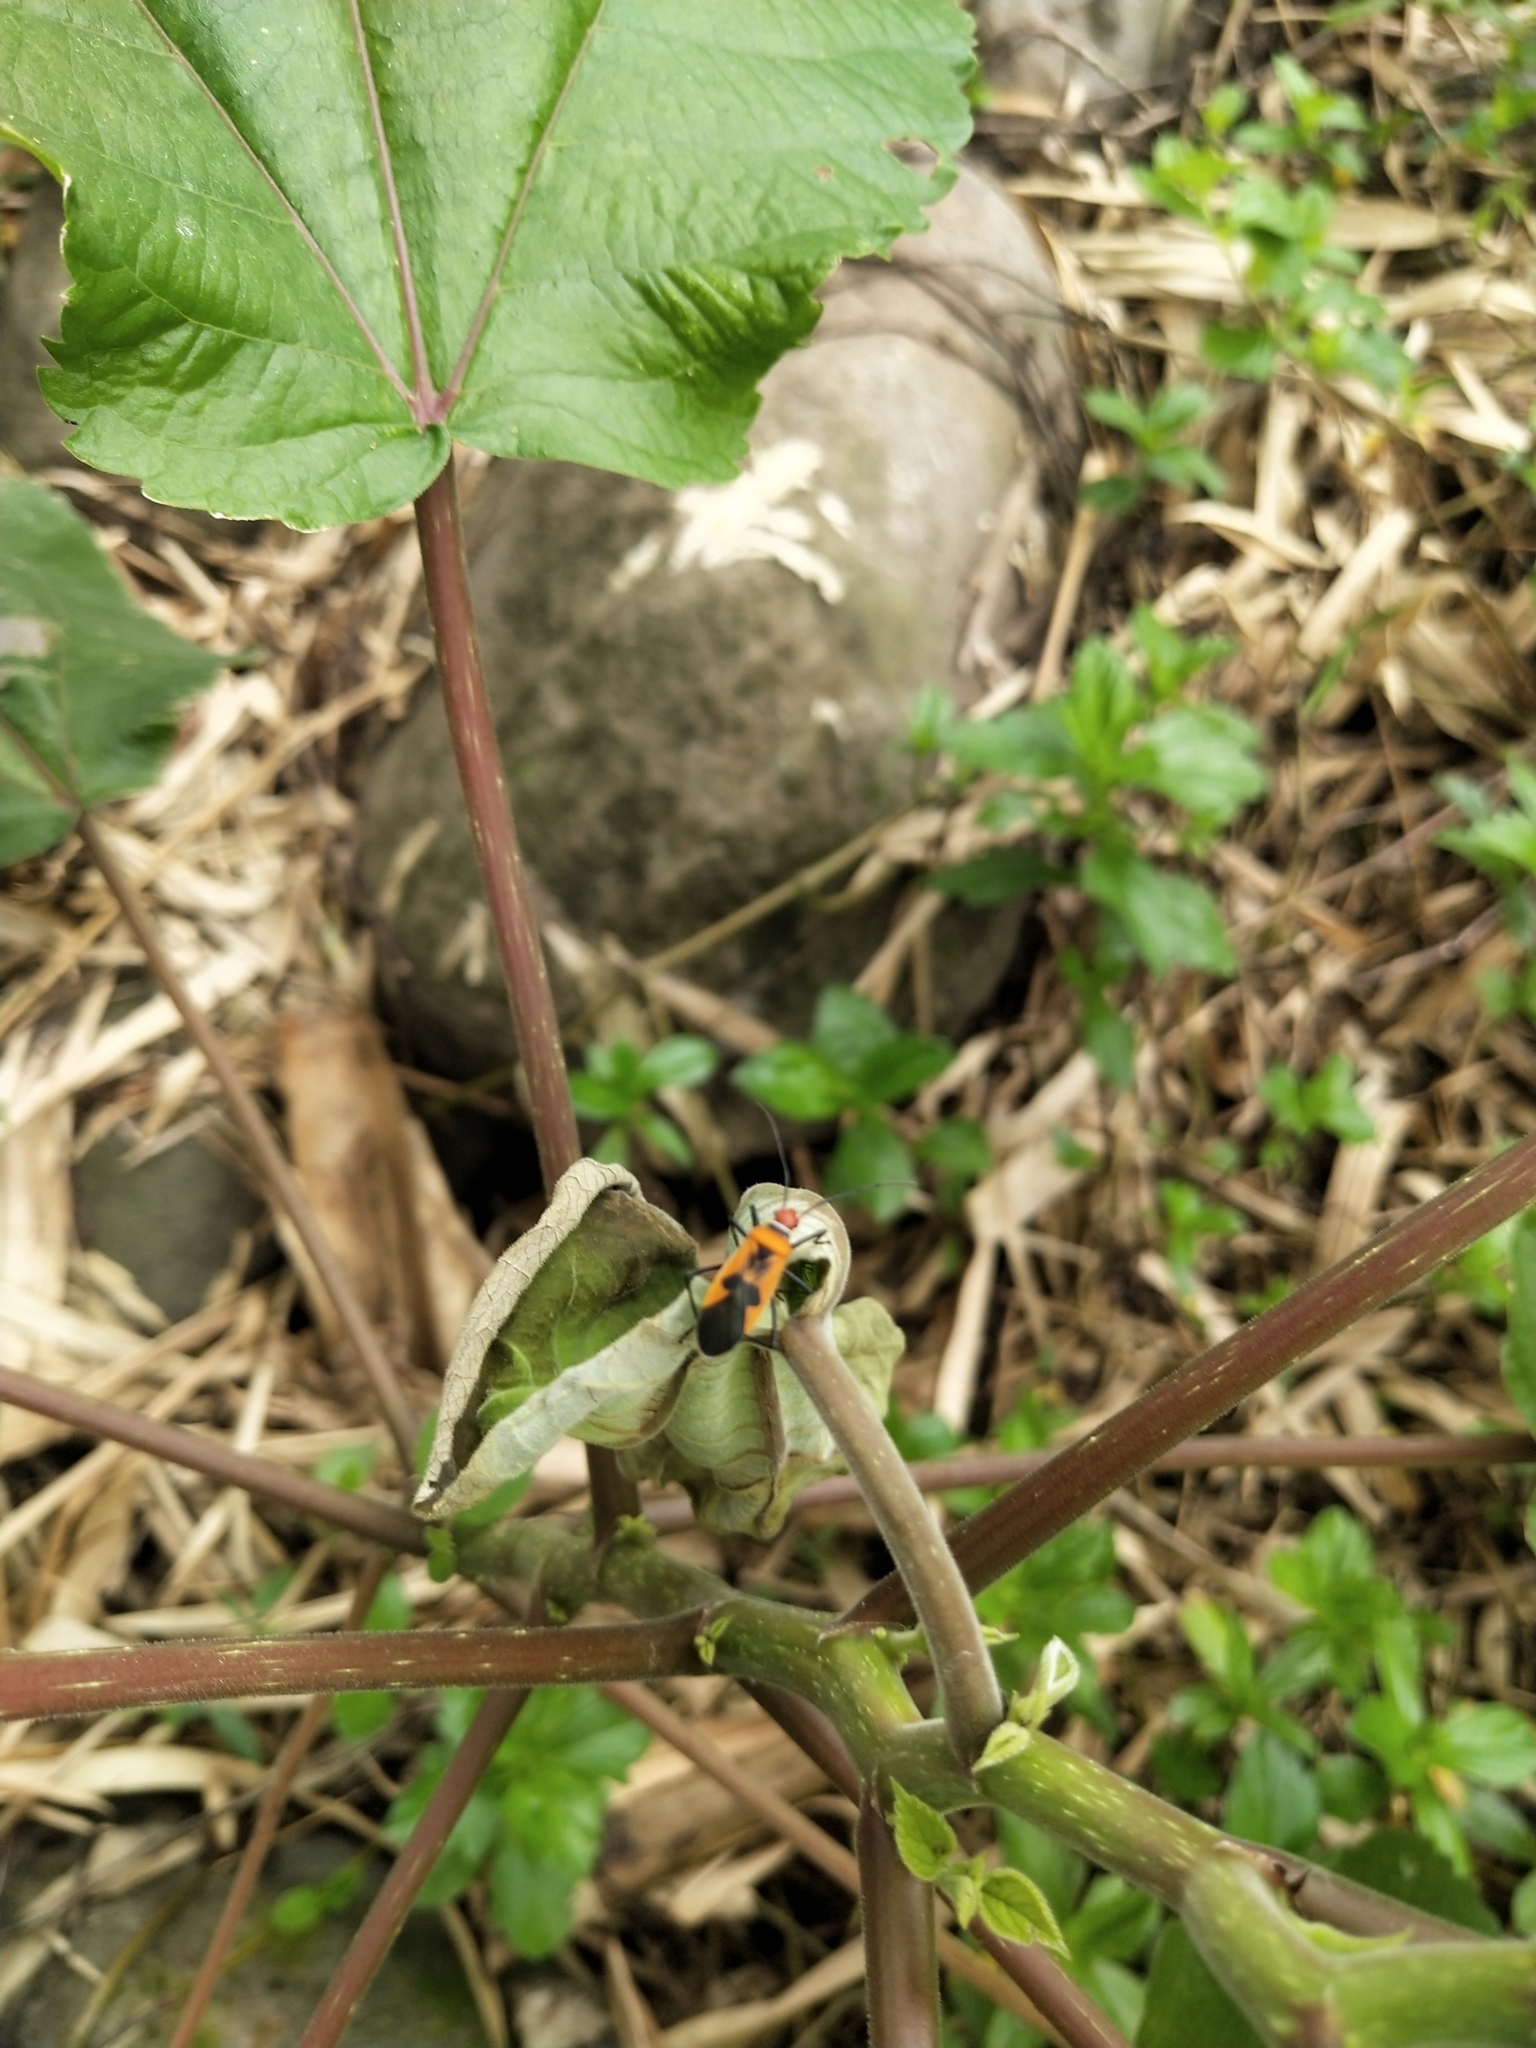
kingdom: Animalia
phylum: Arthropoda
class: Insecta
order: Hemiptera
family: Pyrrhocoridae
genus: Dysdercus
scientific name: Dysdercus poecilus
